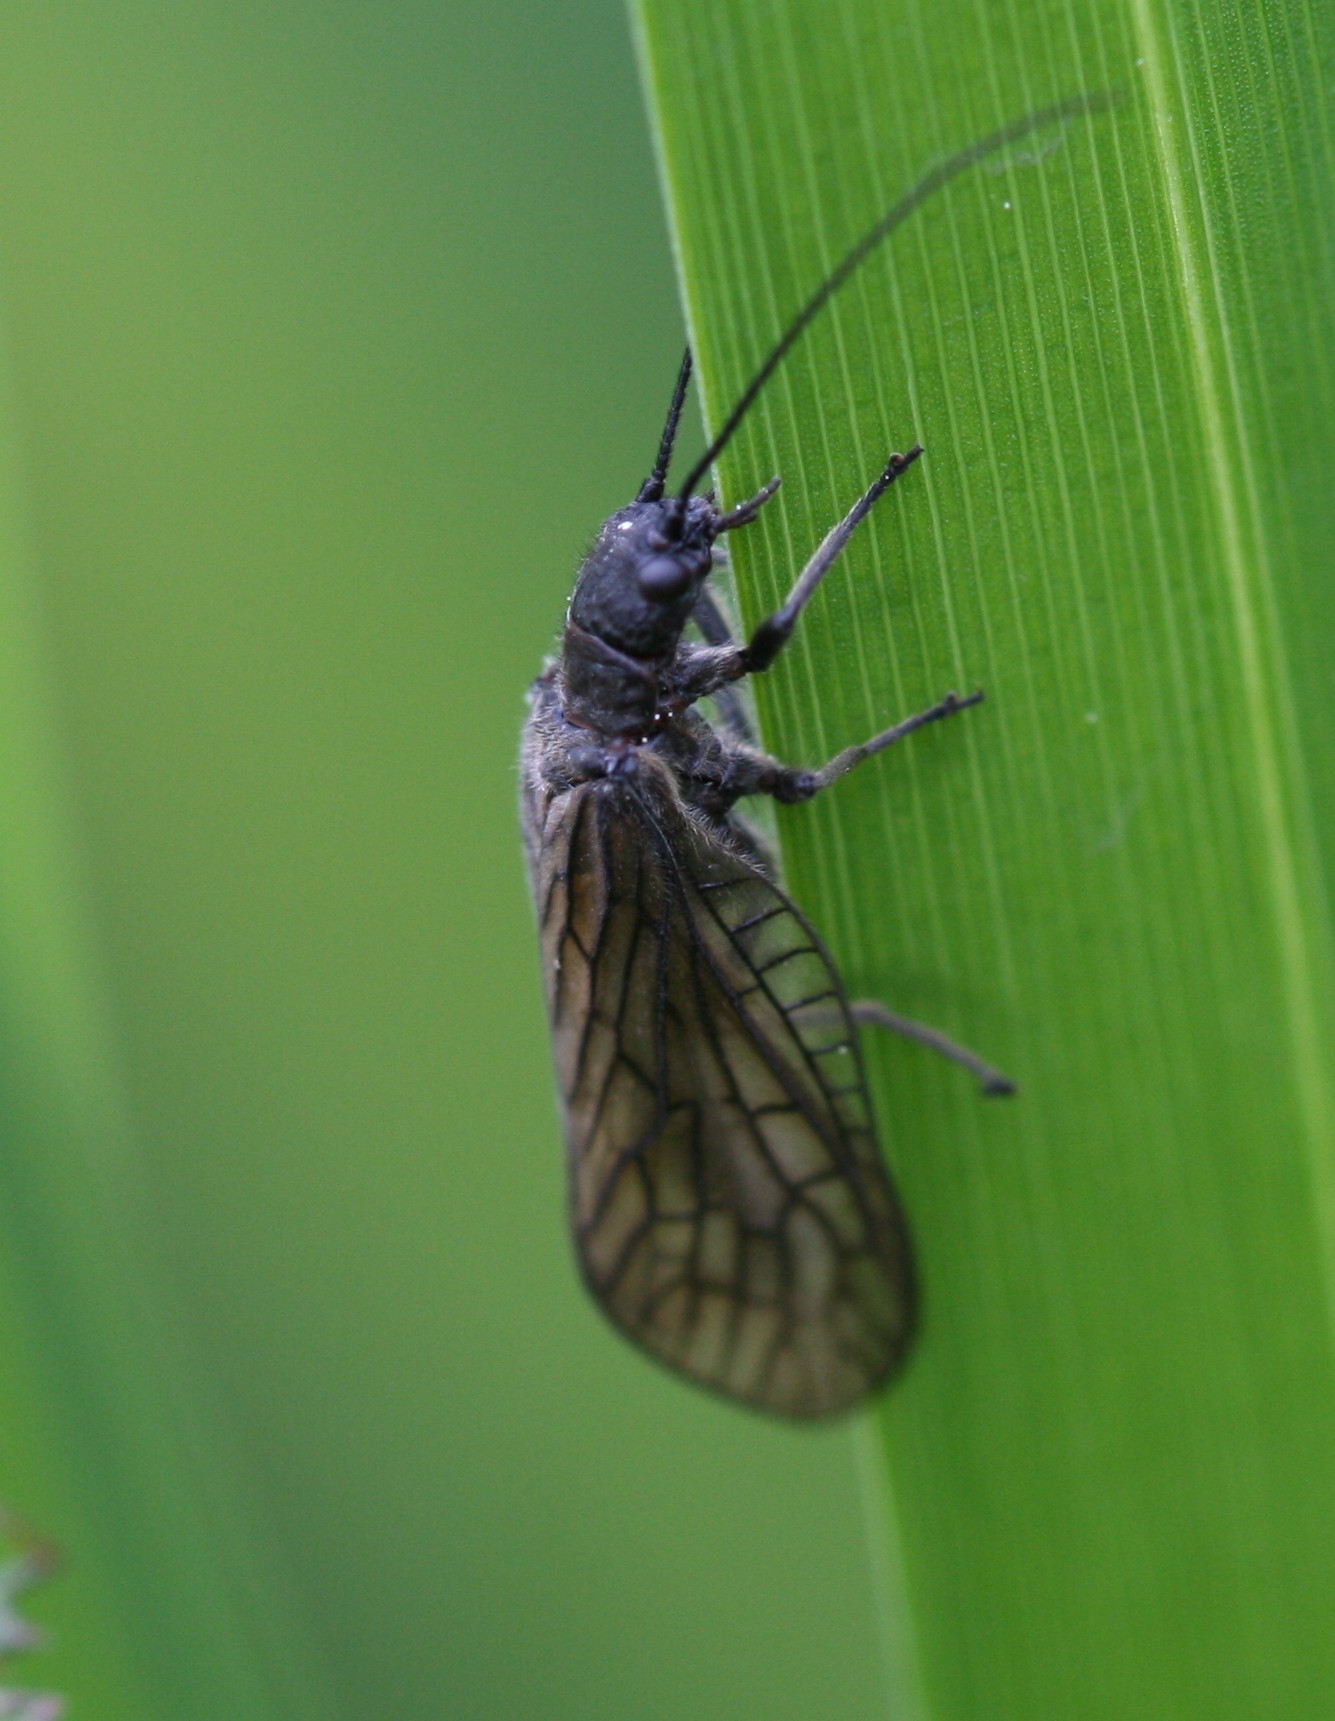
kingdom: Animalia
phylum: Arthropoda
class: Insecta
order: Megaloptera
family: Sialidae
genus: Sialis
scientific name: Sialis
